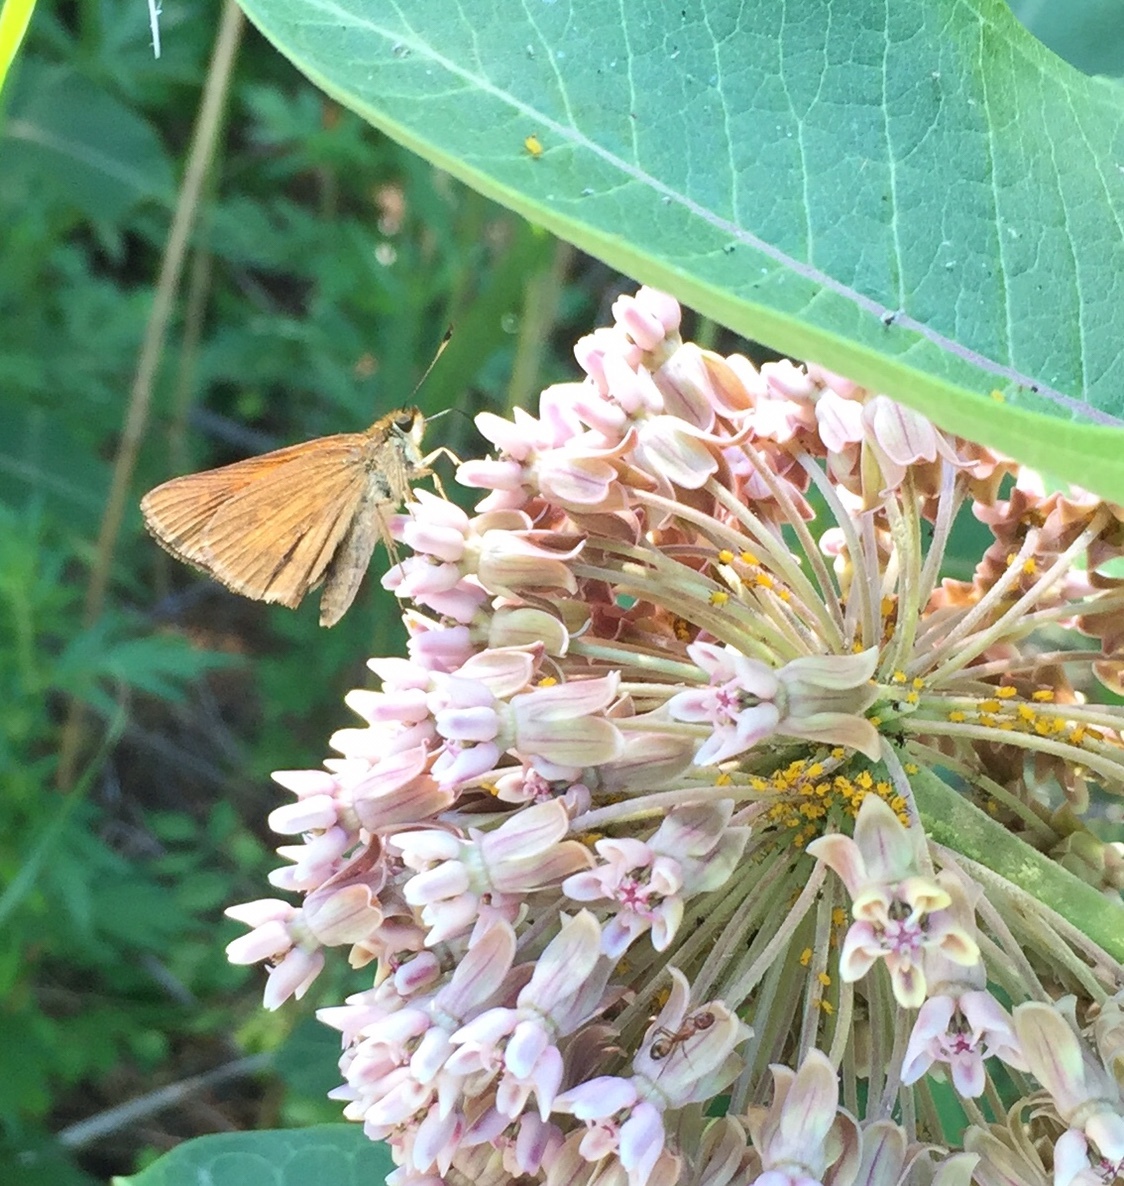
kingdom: Animalia
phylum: Arthropoda
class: Insecta
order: Lepidoptera
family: Hesperiidae
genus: Poanes
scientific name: Poanes viator
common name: Broad-winged skipper
